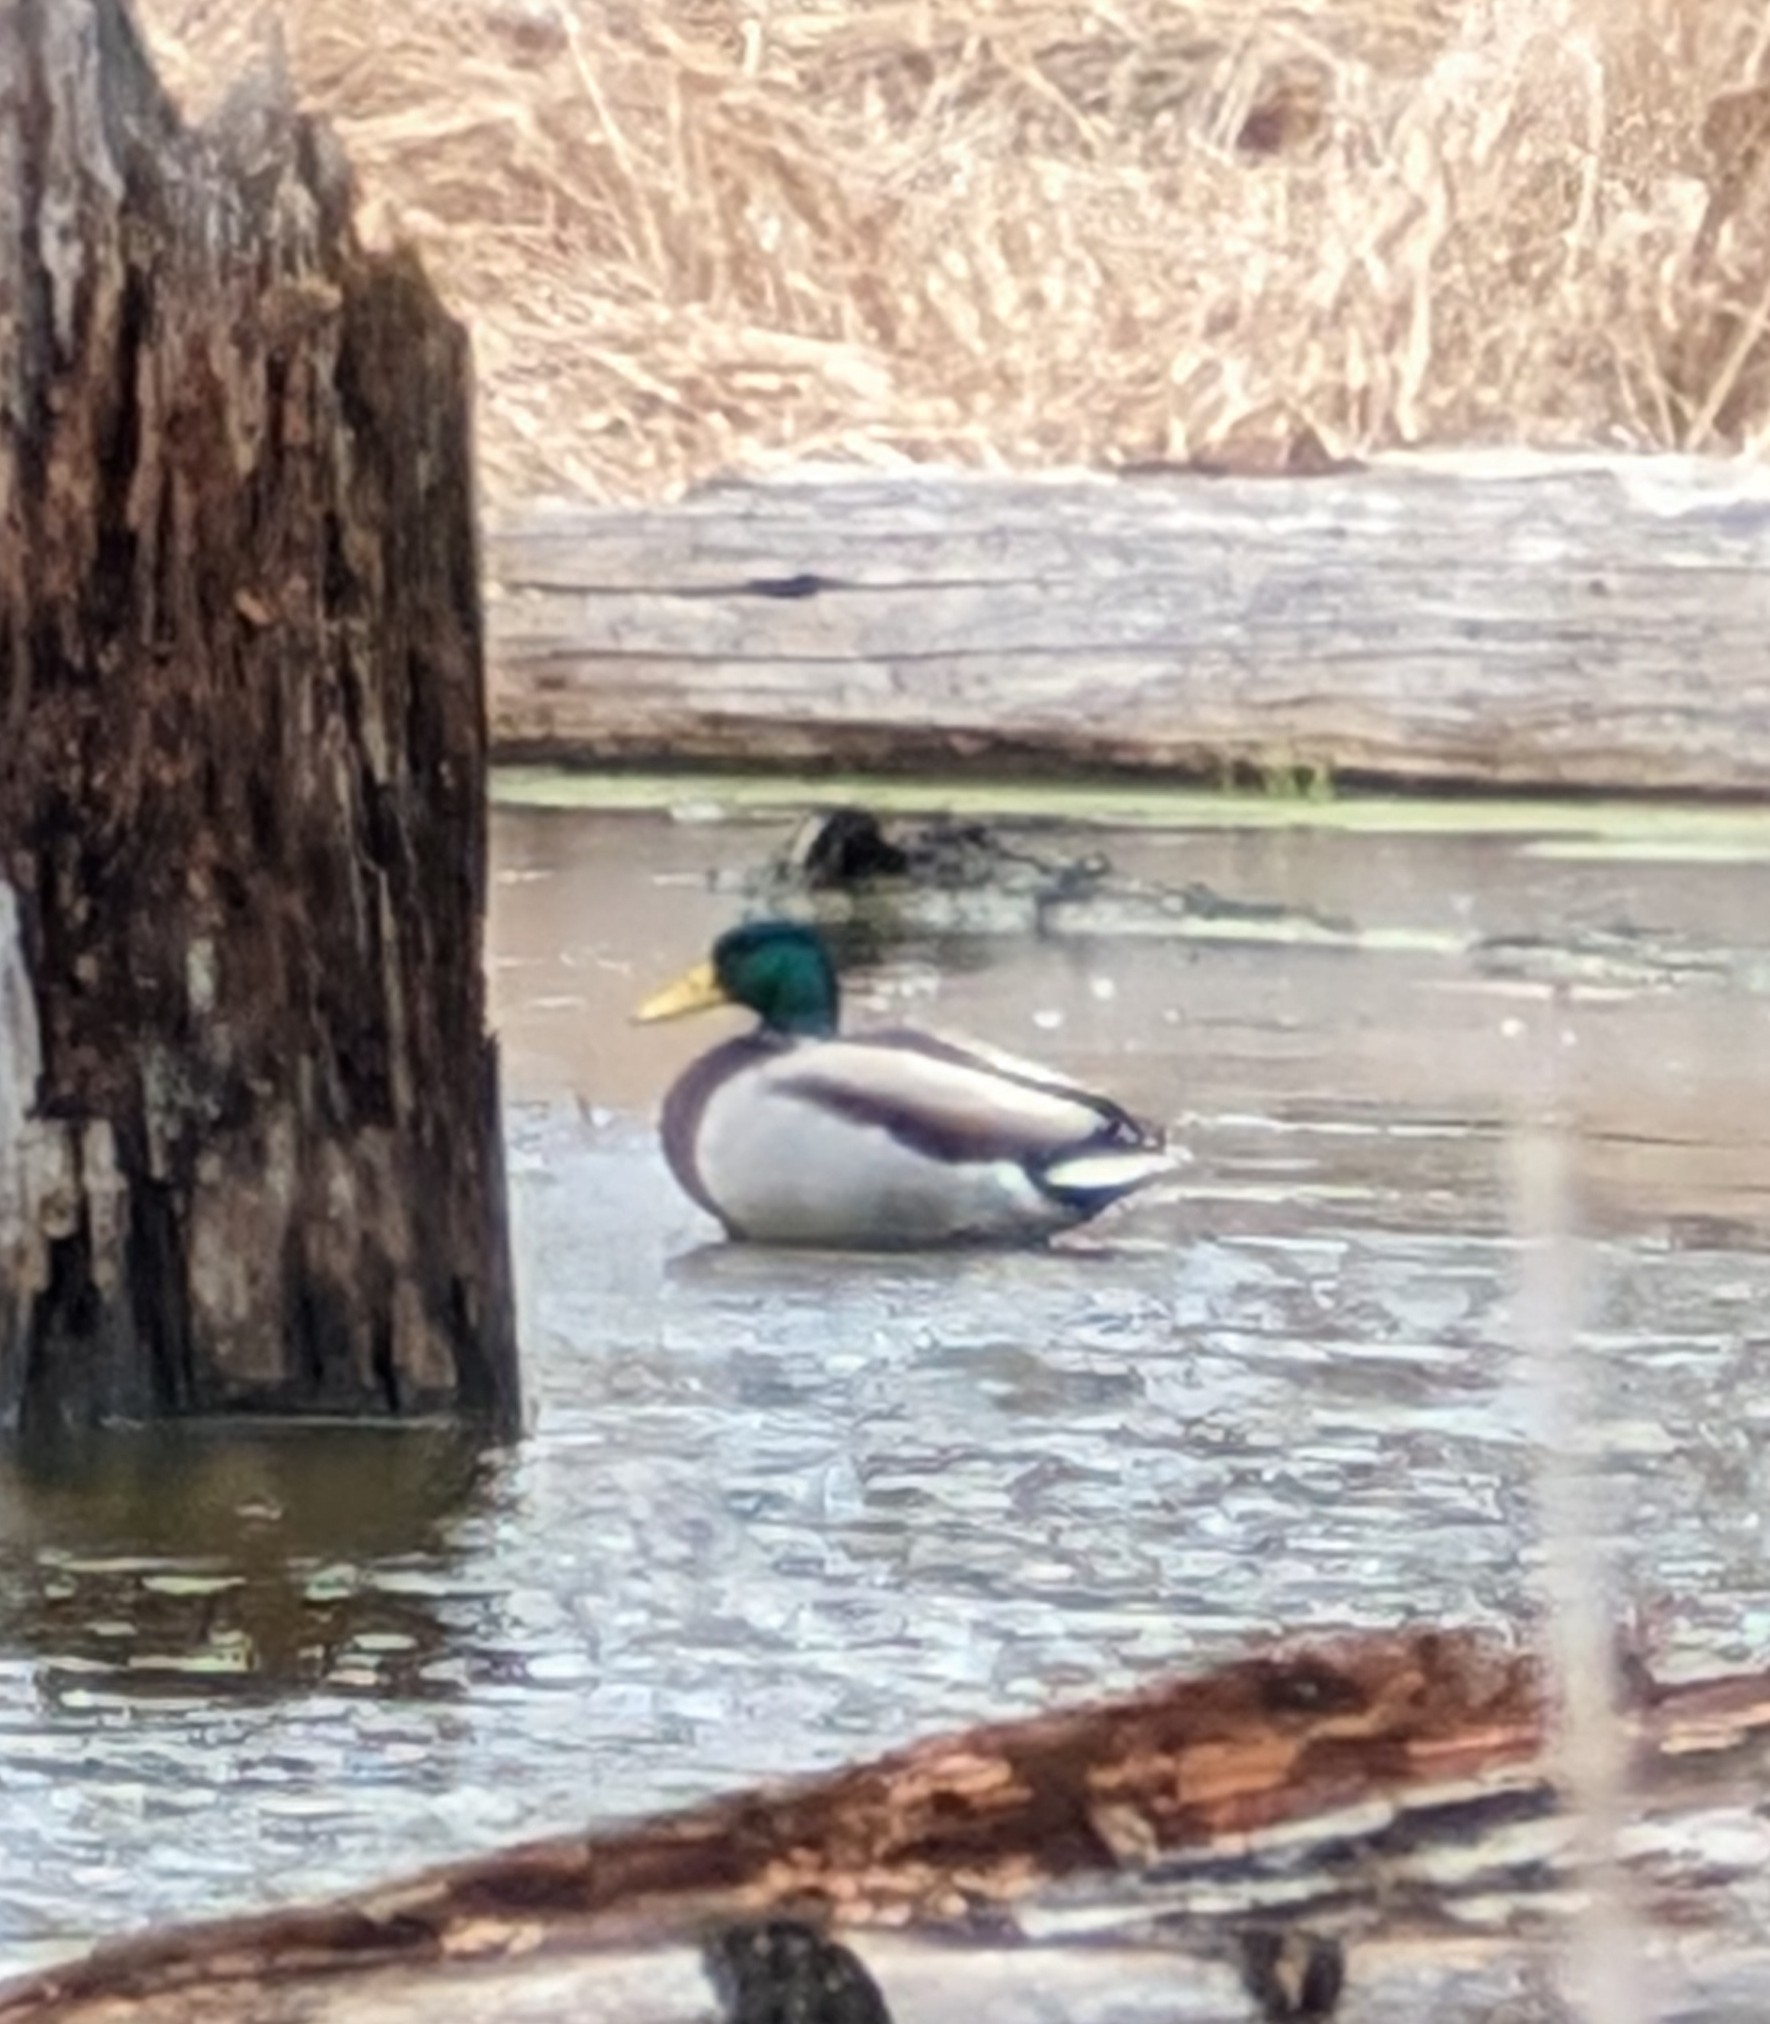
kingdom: Animalia
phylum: Chordata
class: Aves
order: Anseriformes
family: Anatidae
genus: Anas
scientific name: Anas platyrhynchos
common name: Mallard
